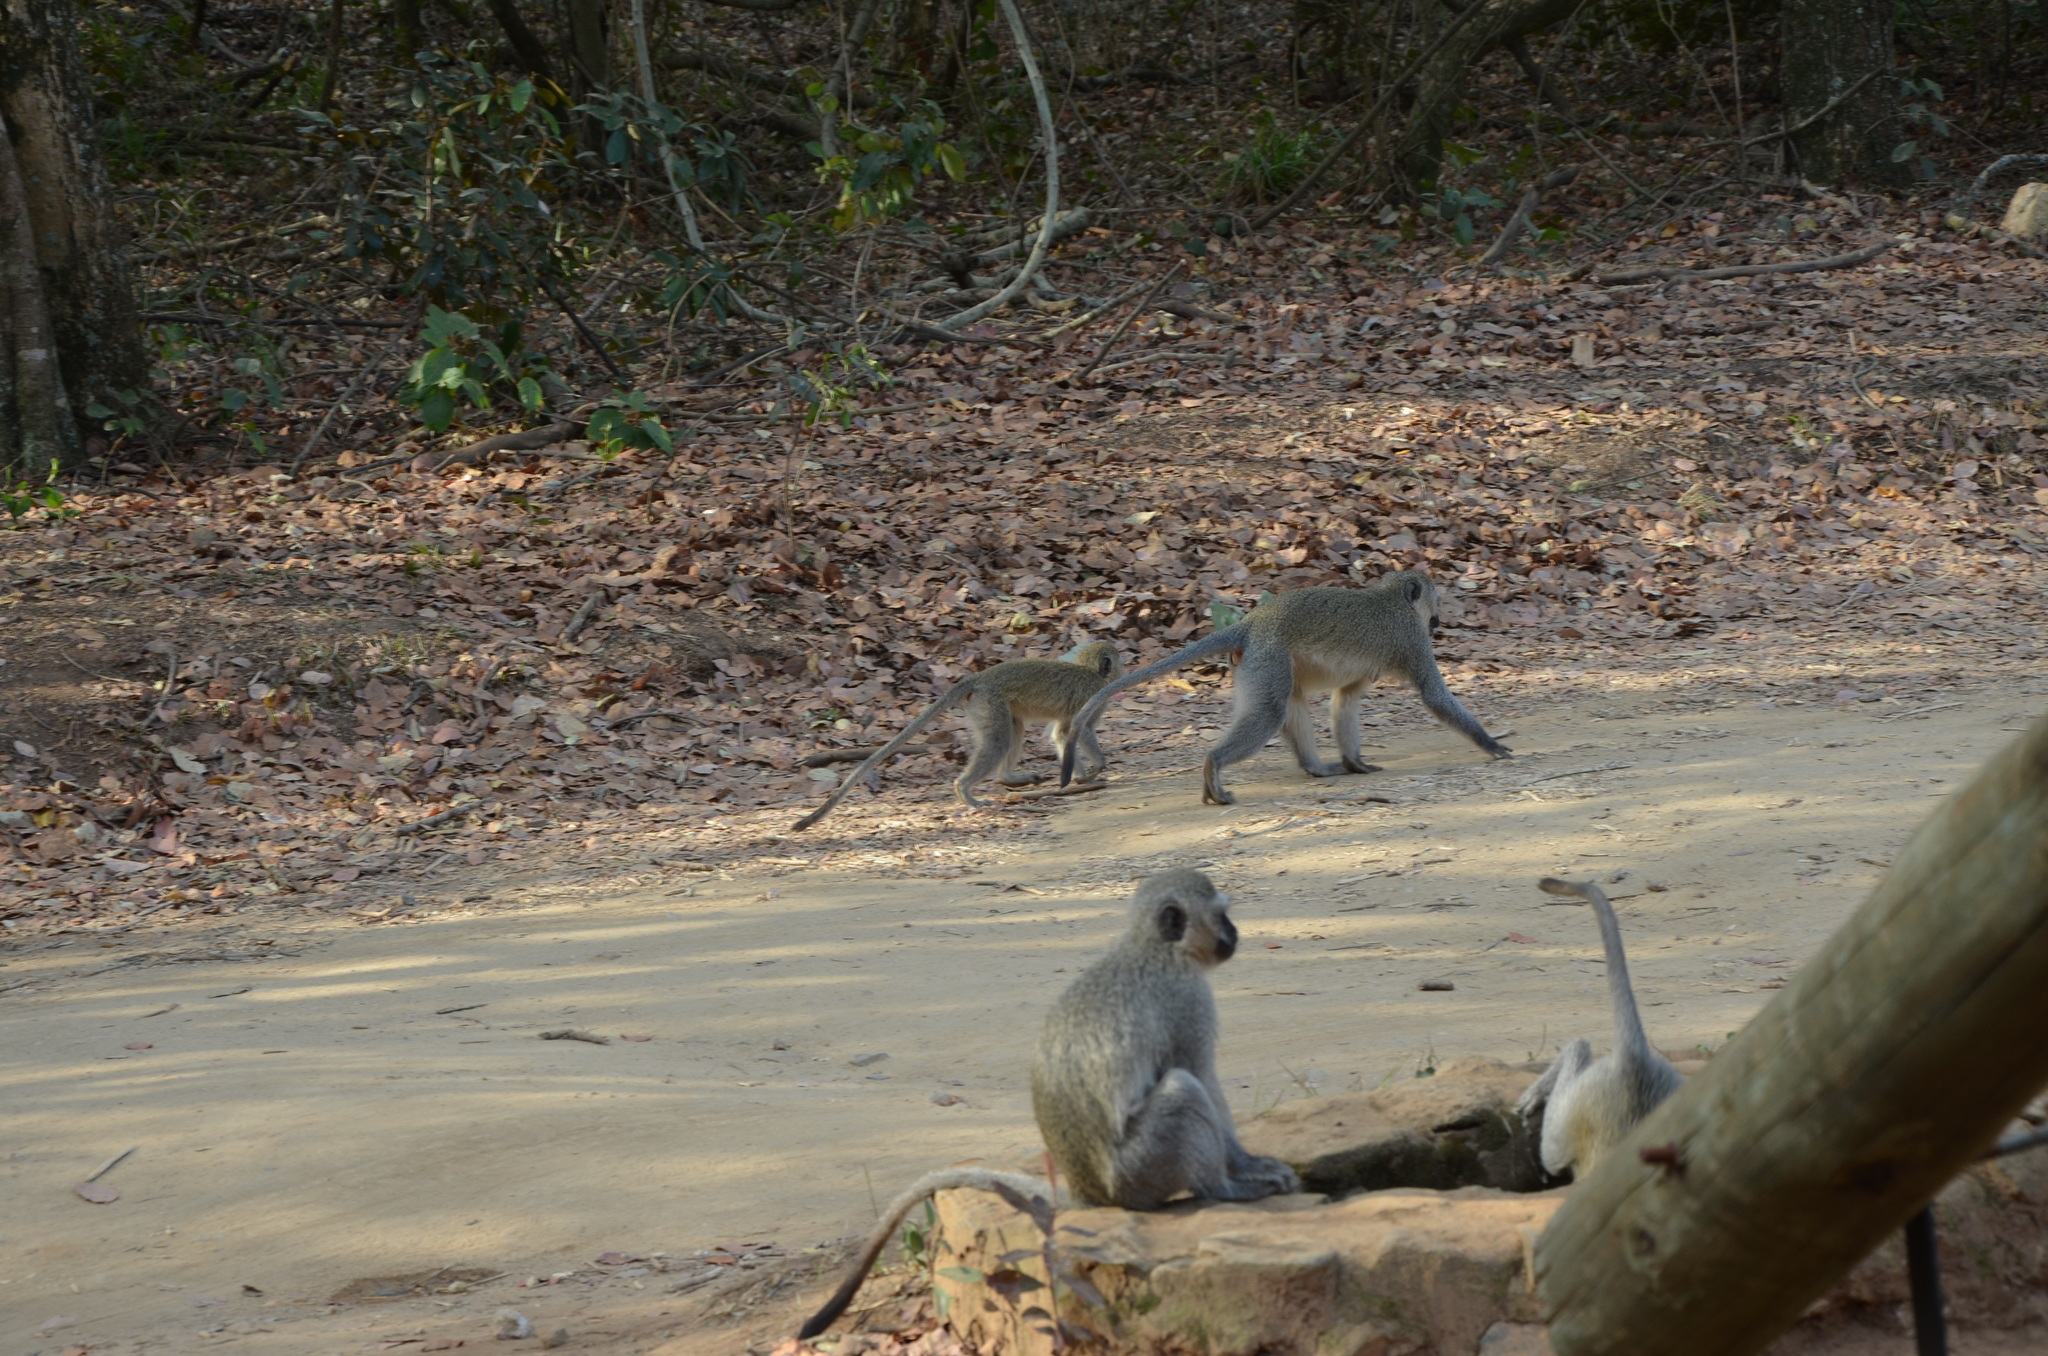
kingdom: Animalia
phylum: Chordata
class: Mammalia
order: Primates
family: Cercopithecidae
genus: Chlorocebus
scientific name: Chlorocebus pygerythrus
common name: Vervet monkey
